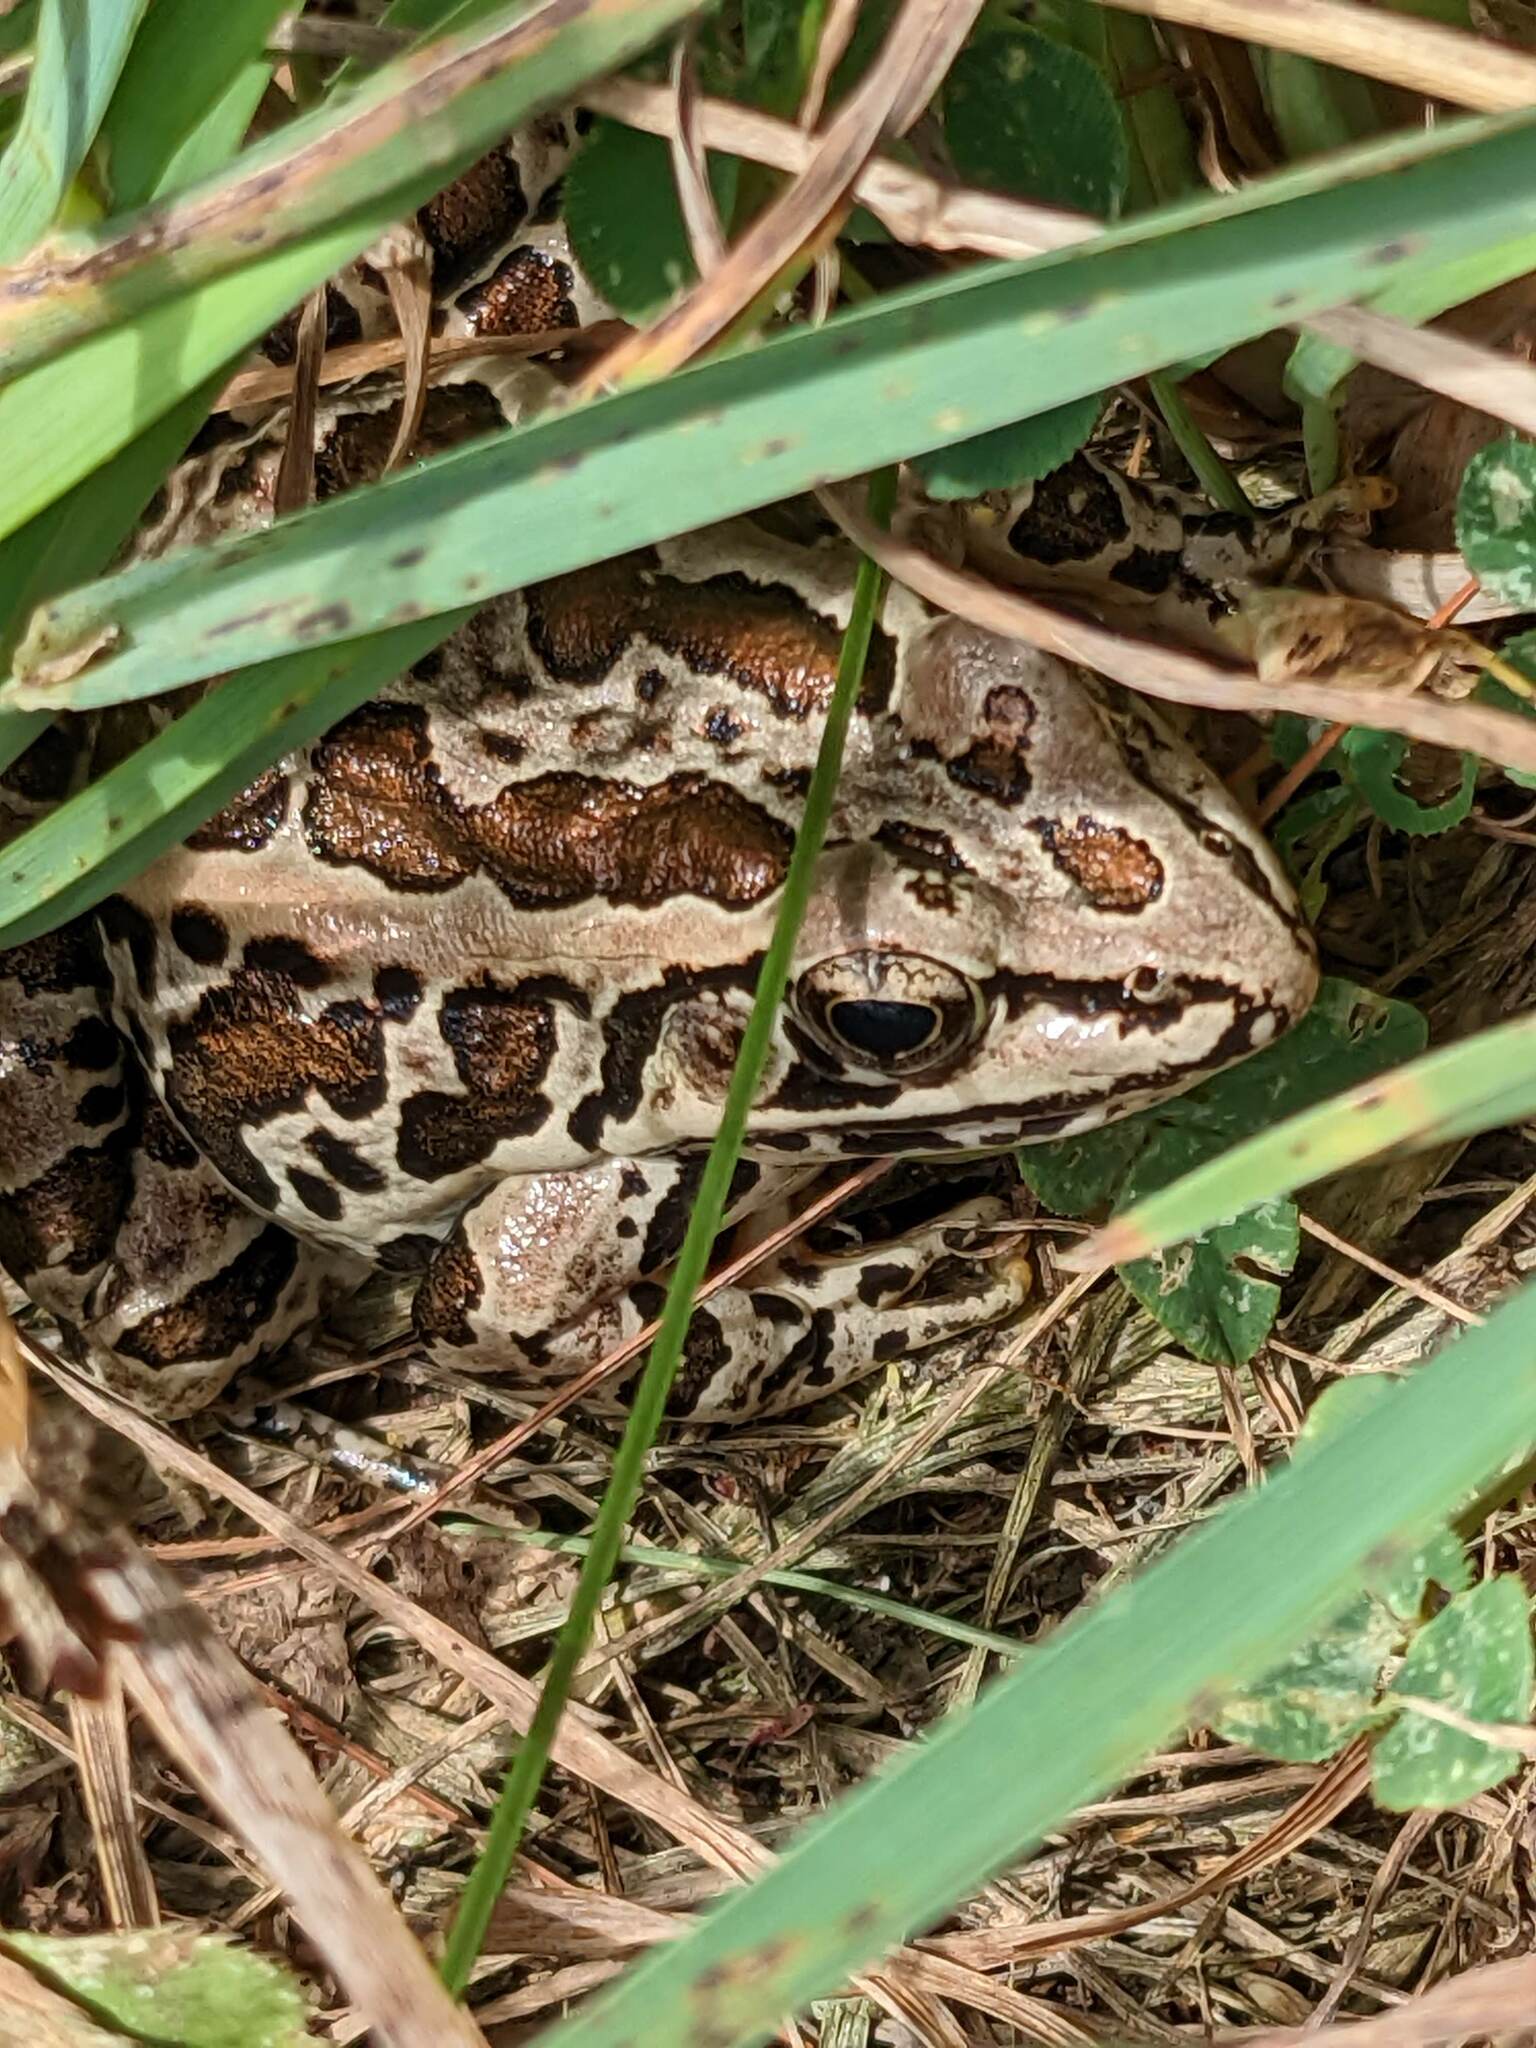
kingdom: Animalia
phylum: Chordata
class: Amphibia
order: Anura
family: Ranidae
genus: Lithobates
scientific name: Lithobates palustris
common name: Pickerel frog
